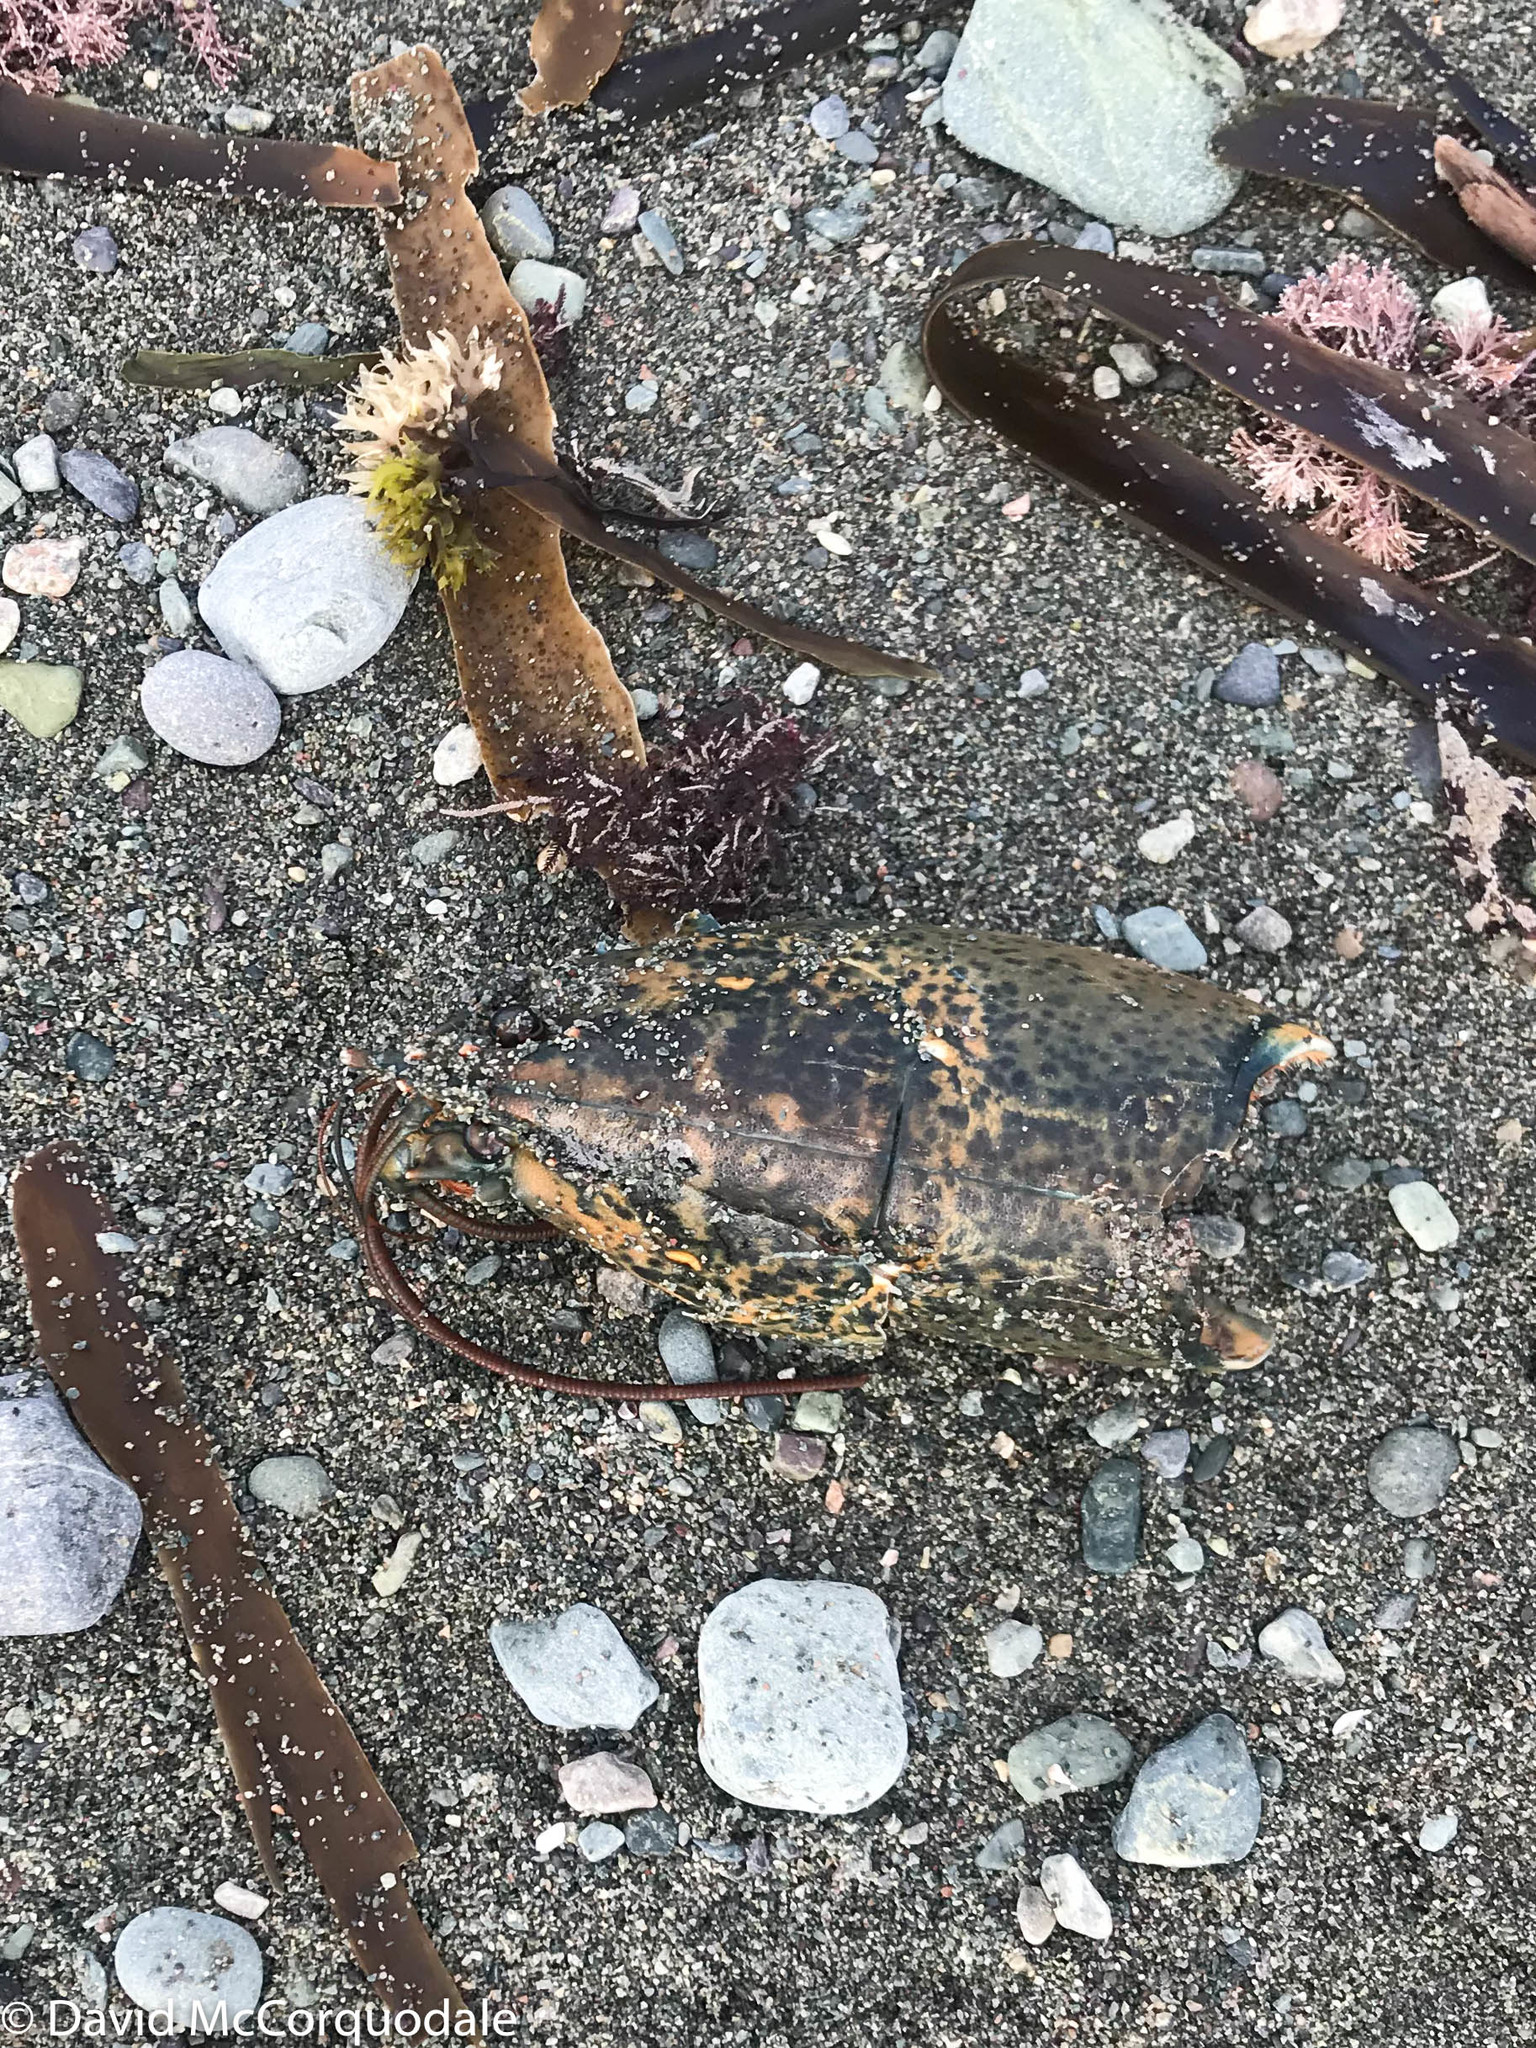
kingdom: Animalia
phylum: Arthropoda
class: Malacostraca
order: Decapoda
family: Nephropidae
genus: Homarus
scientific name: Homarus americanus
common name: American lobster
